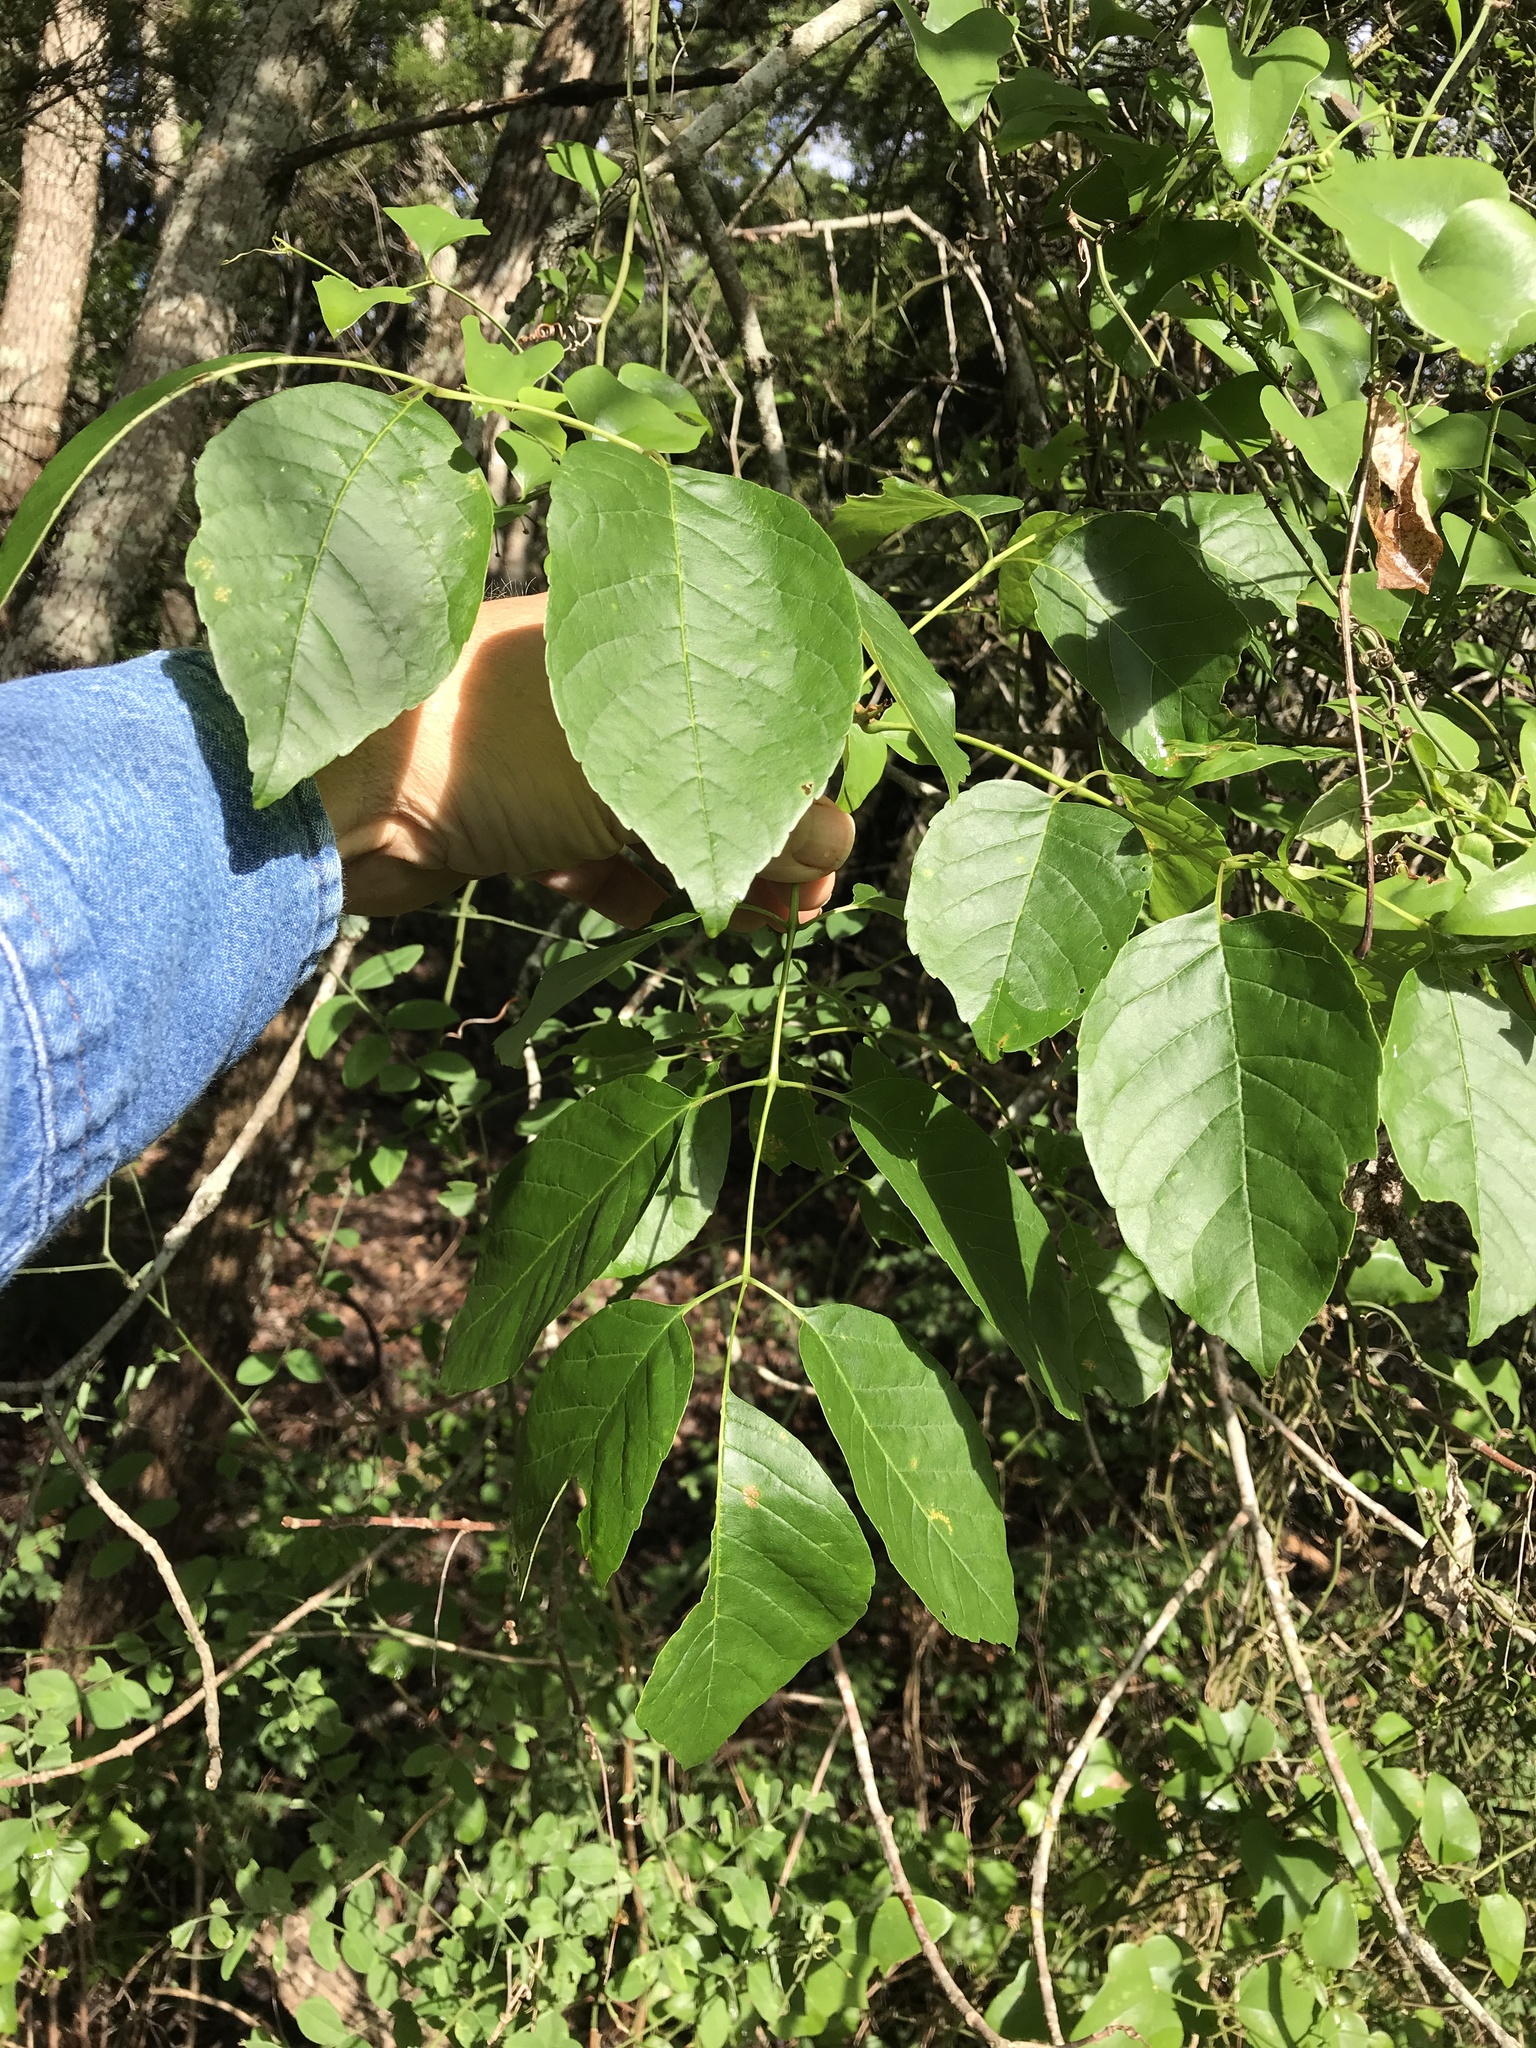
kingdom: Plantae
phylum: Tracheophyta
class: Magnoliopsida
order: Lamiales
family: Oleaceae
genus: Fraxinus
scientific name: Fraxinus albicans
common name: Texas ash
